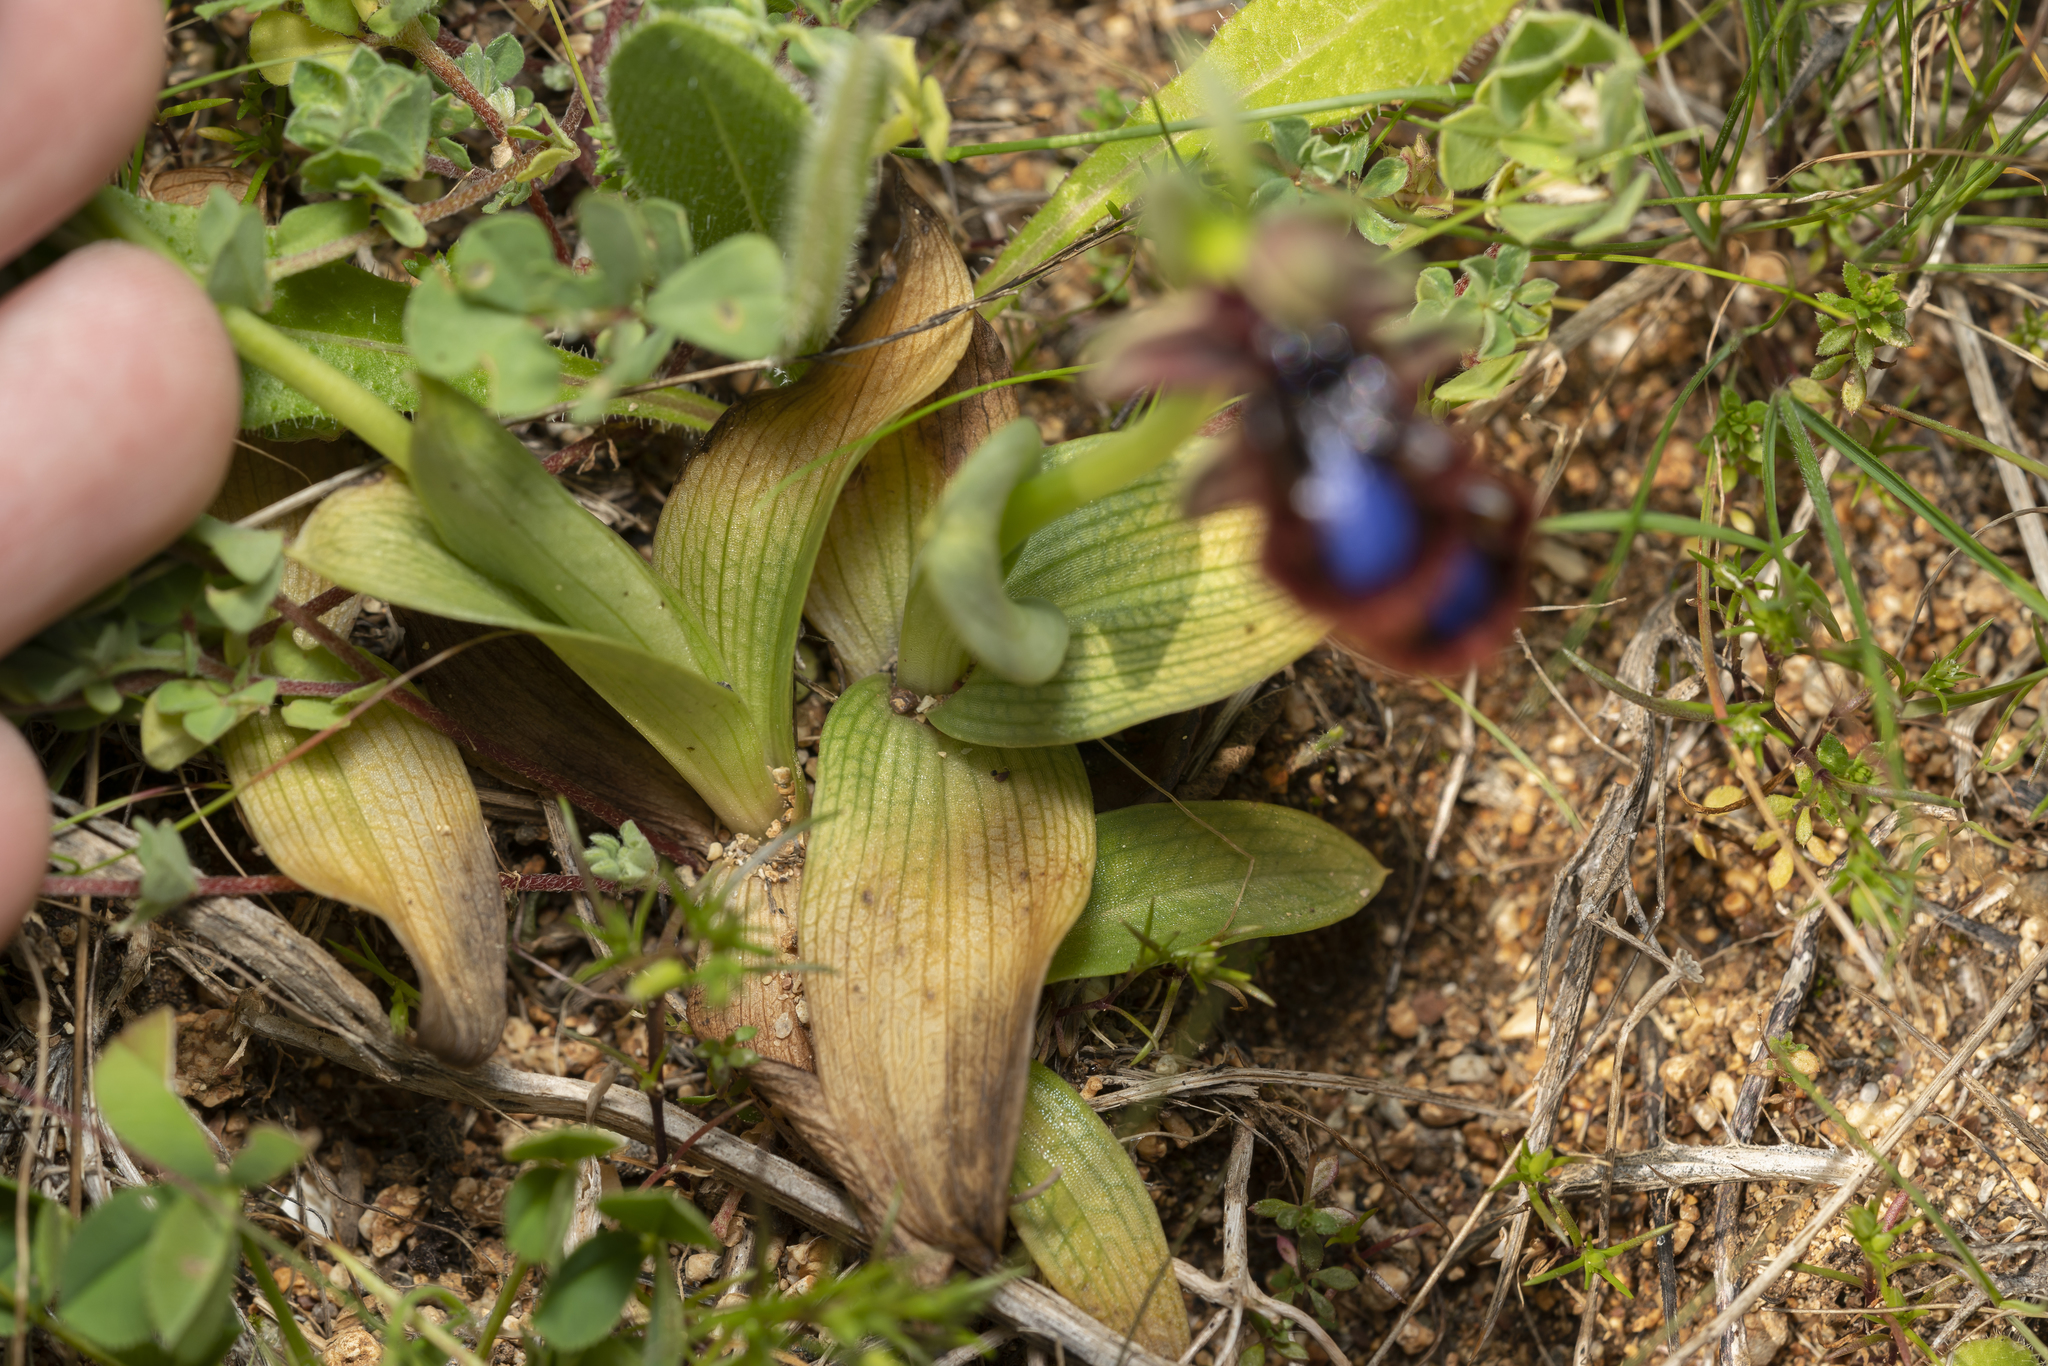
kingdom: Plantae
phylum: Tracheophyta
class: Liliopsida
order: Asparagales
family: Orchidaceae
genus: Ophrys
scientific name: Ophrys speculum
